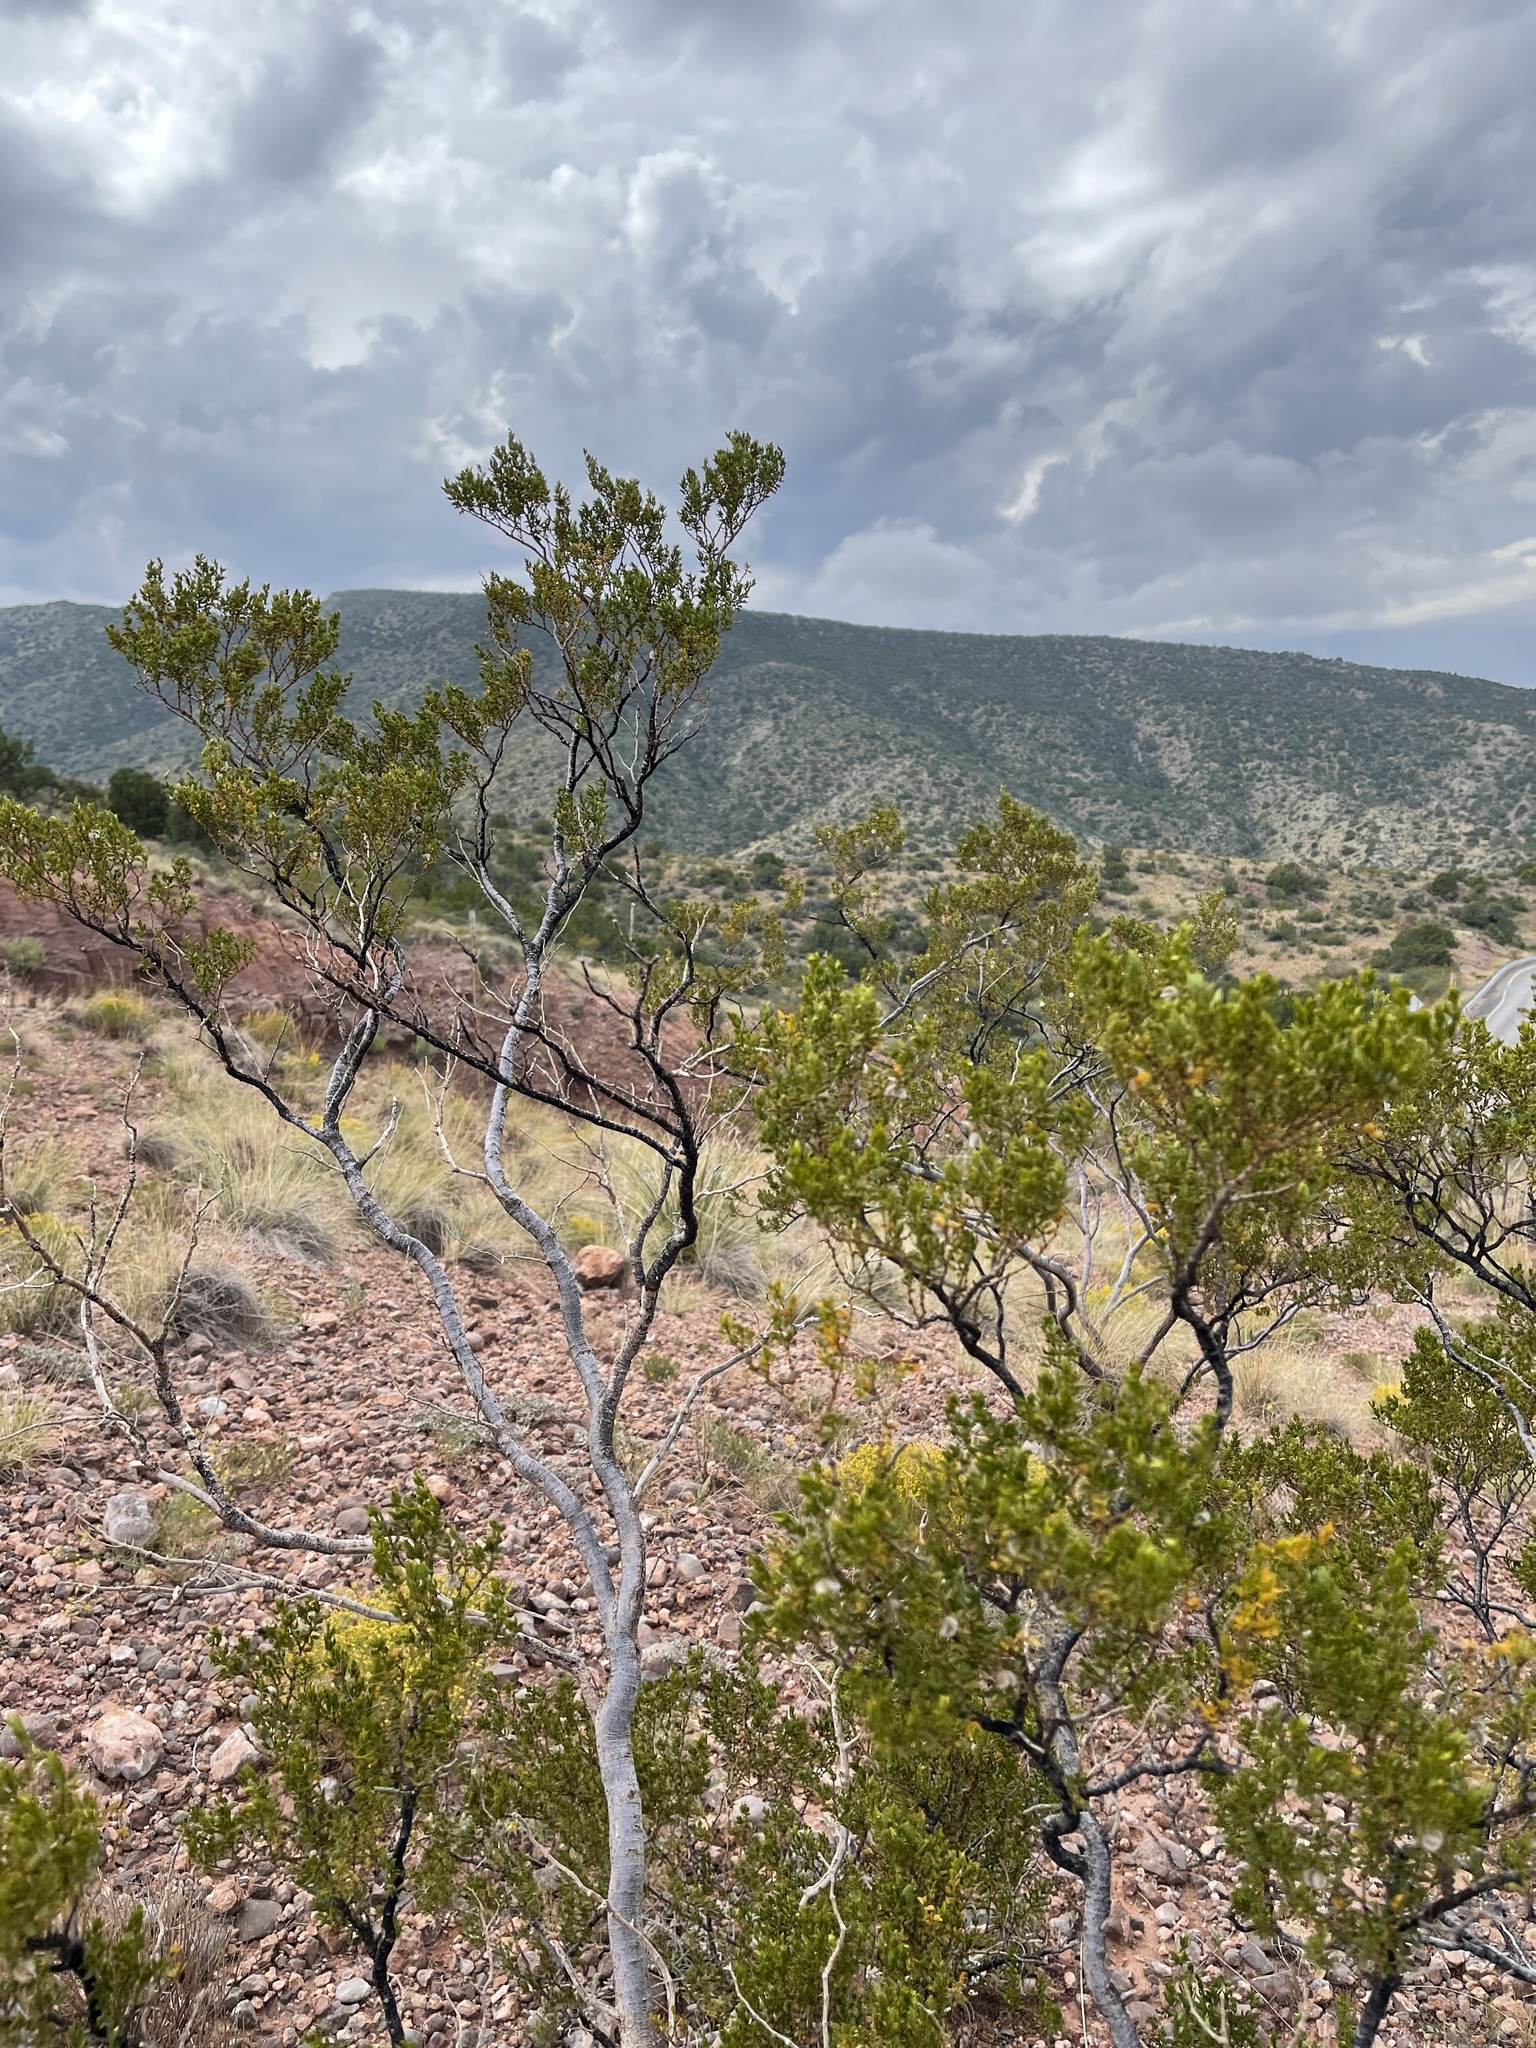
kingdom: Plantae
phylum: Tracheophyta
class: Magnoliopsida
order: Zygophyllales
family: Zygophyllaceae
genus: Larrea
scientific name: Larrea tridentata
